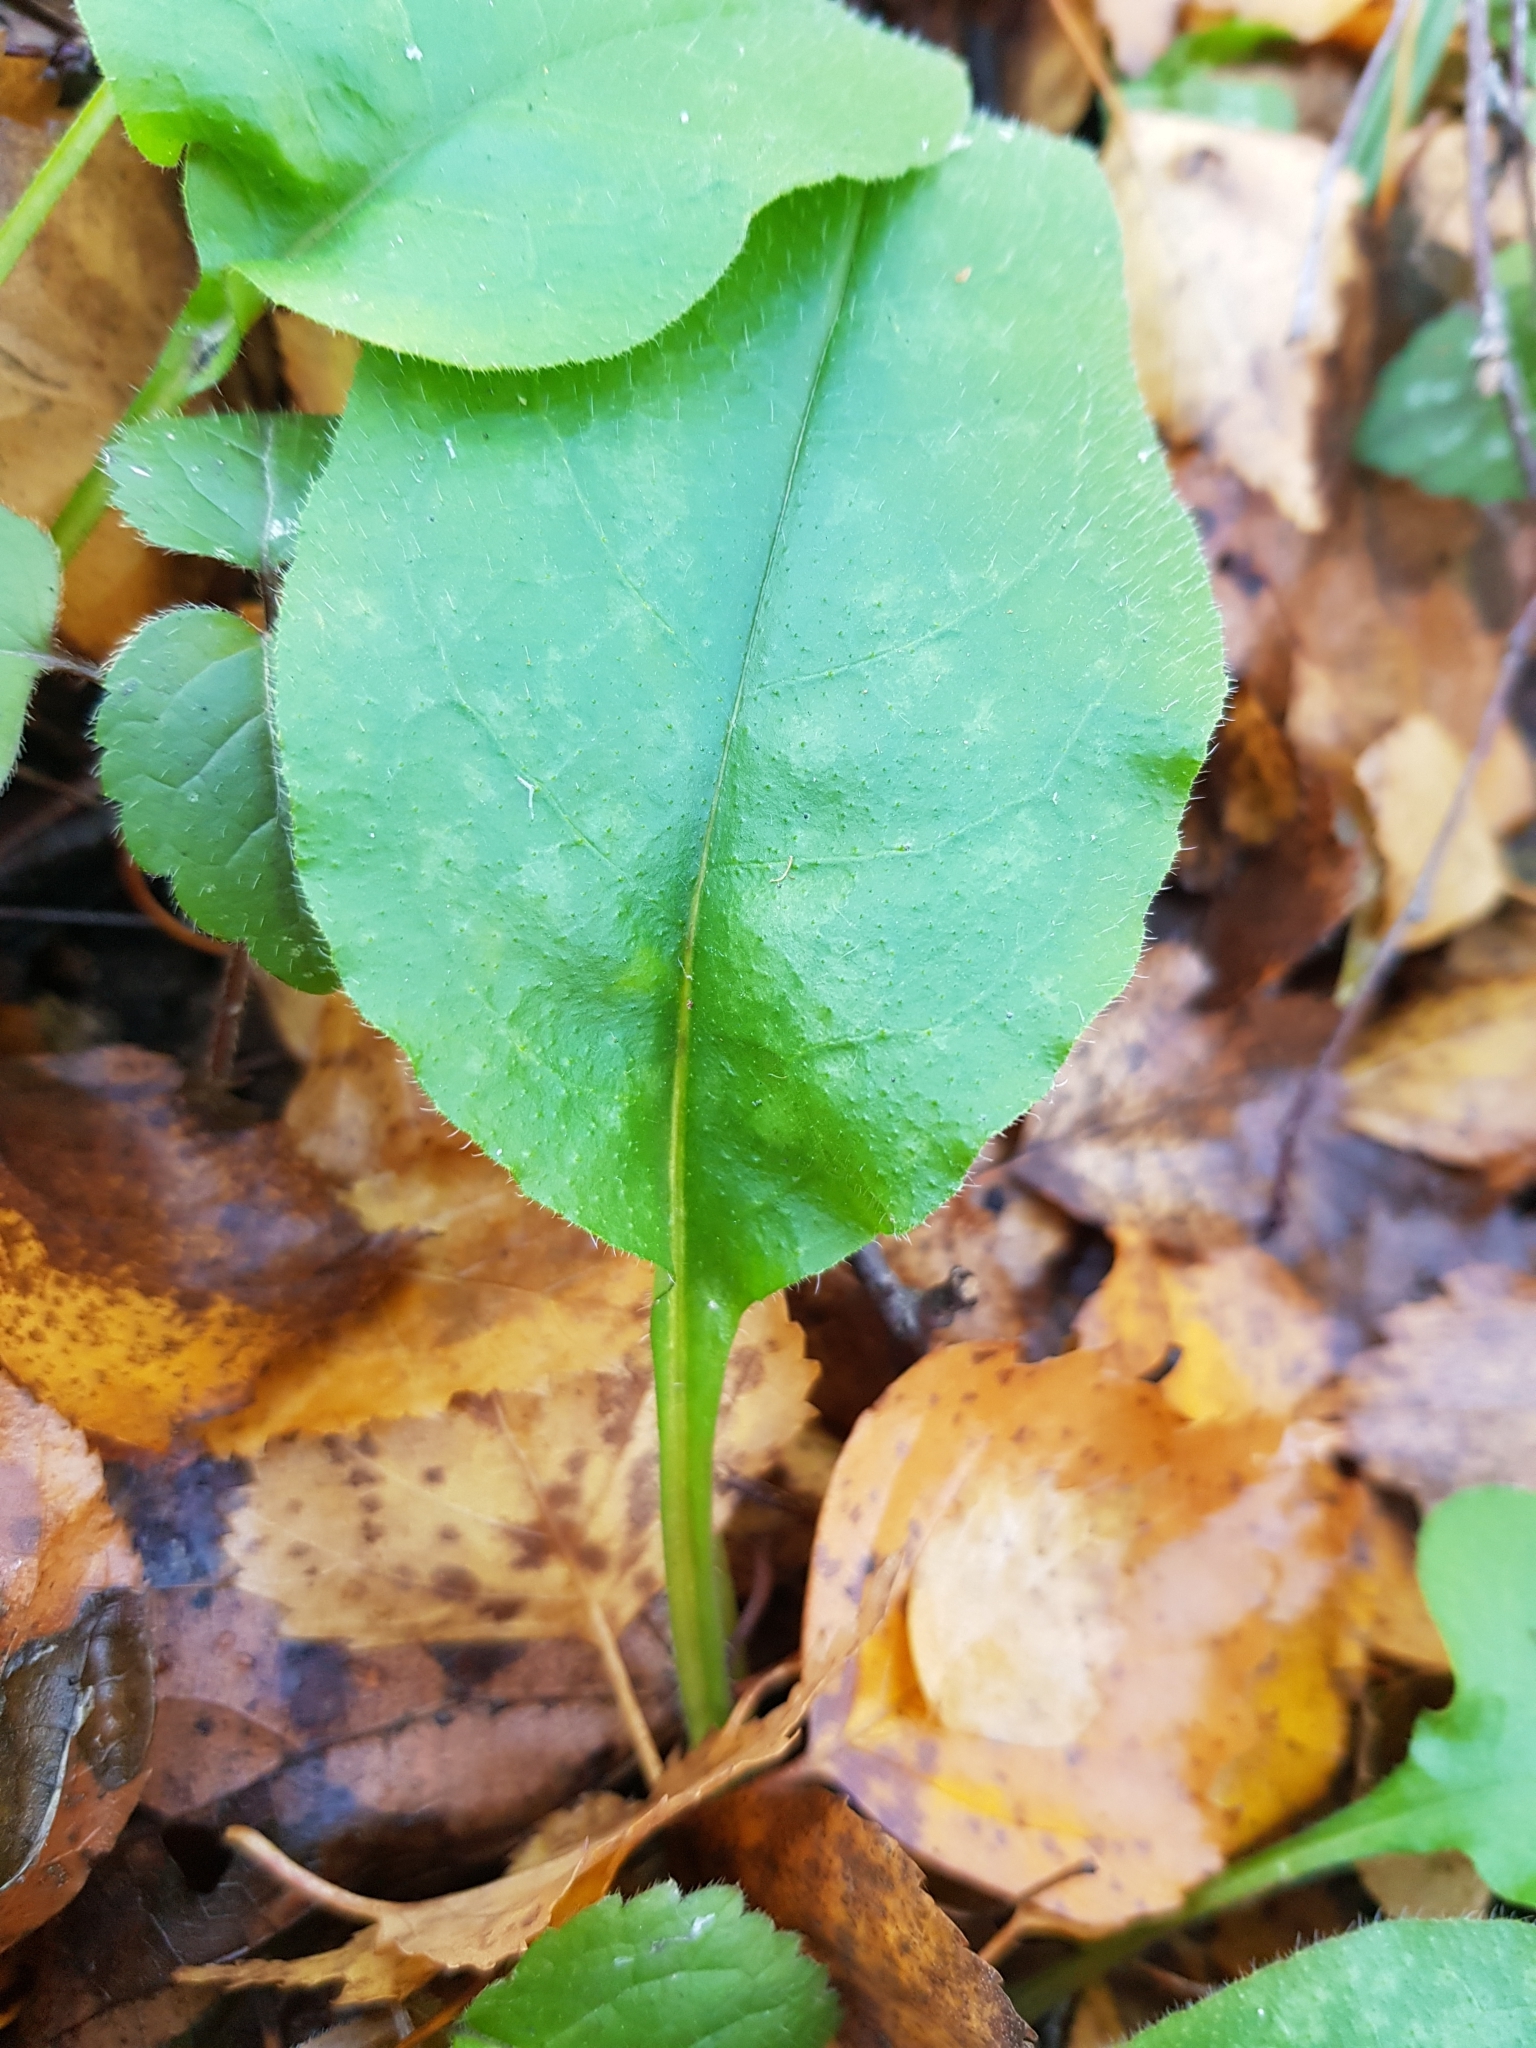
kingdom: Plantae
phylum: Tracheophyta
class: Magnoliopsida
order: Boraginales
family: Boraginaceae
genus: Pulmonaria
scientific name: Pulmonaria obscura
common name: Suffolk lungwort
